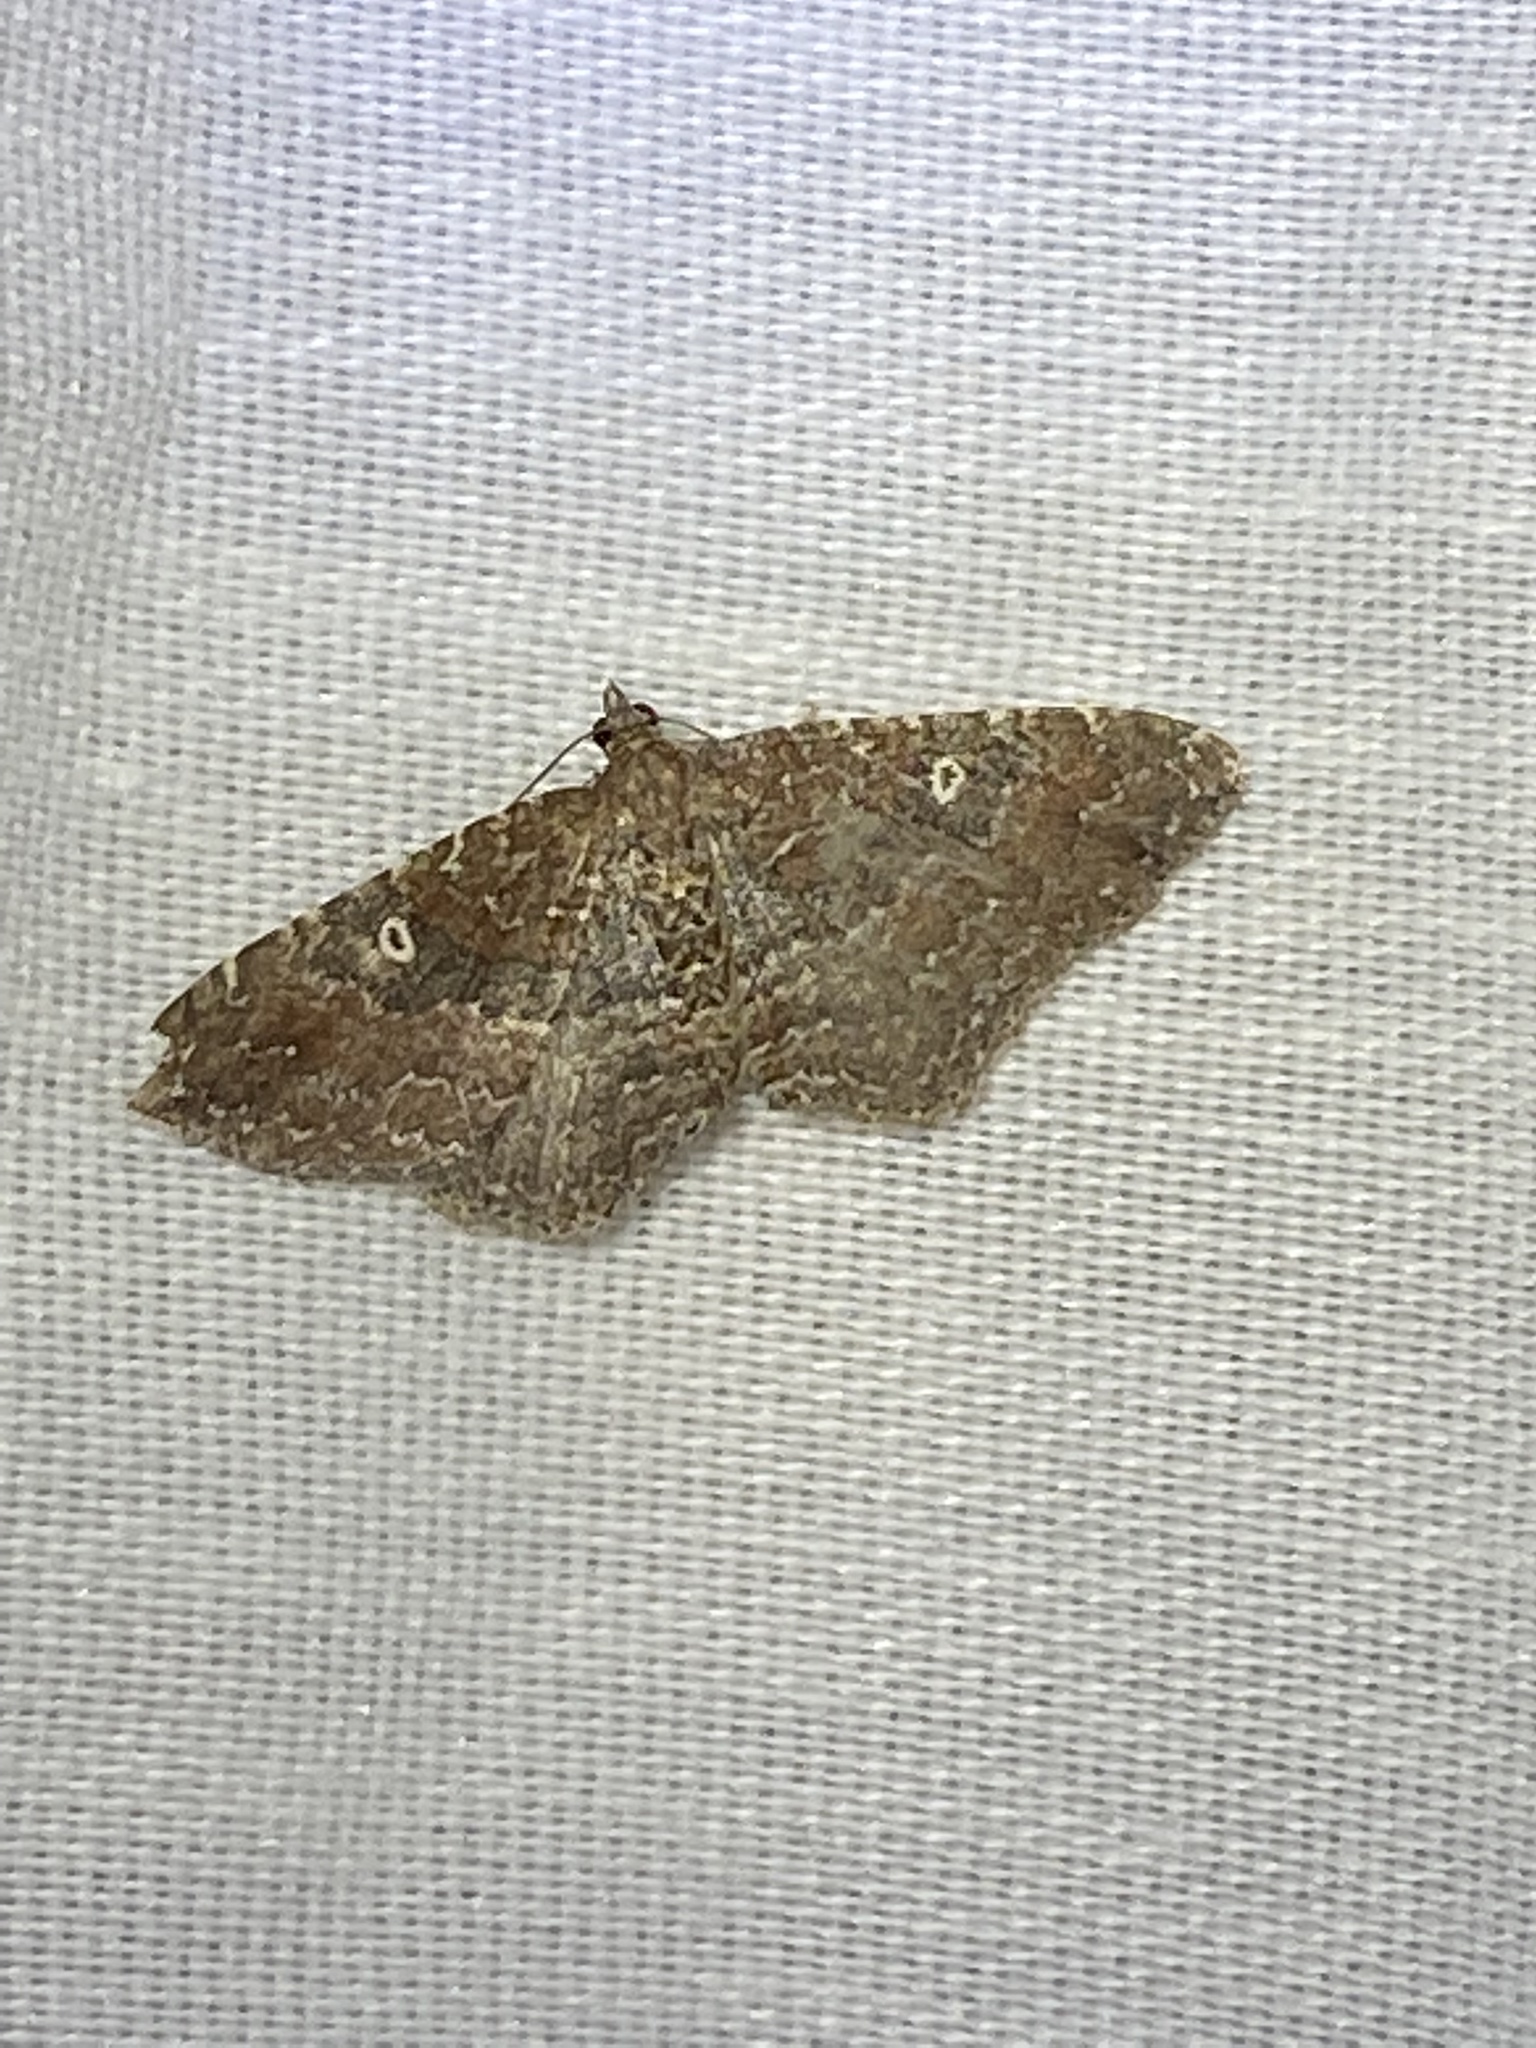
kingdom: Animalia
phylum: Arthropoda
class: Insecta
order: Lepidoptera
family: Geometridae
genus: Orthonama
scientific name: Orthonama obstipata
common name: The gem
